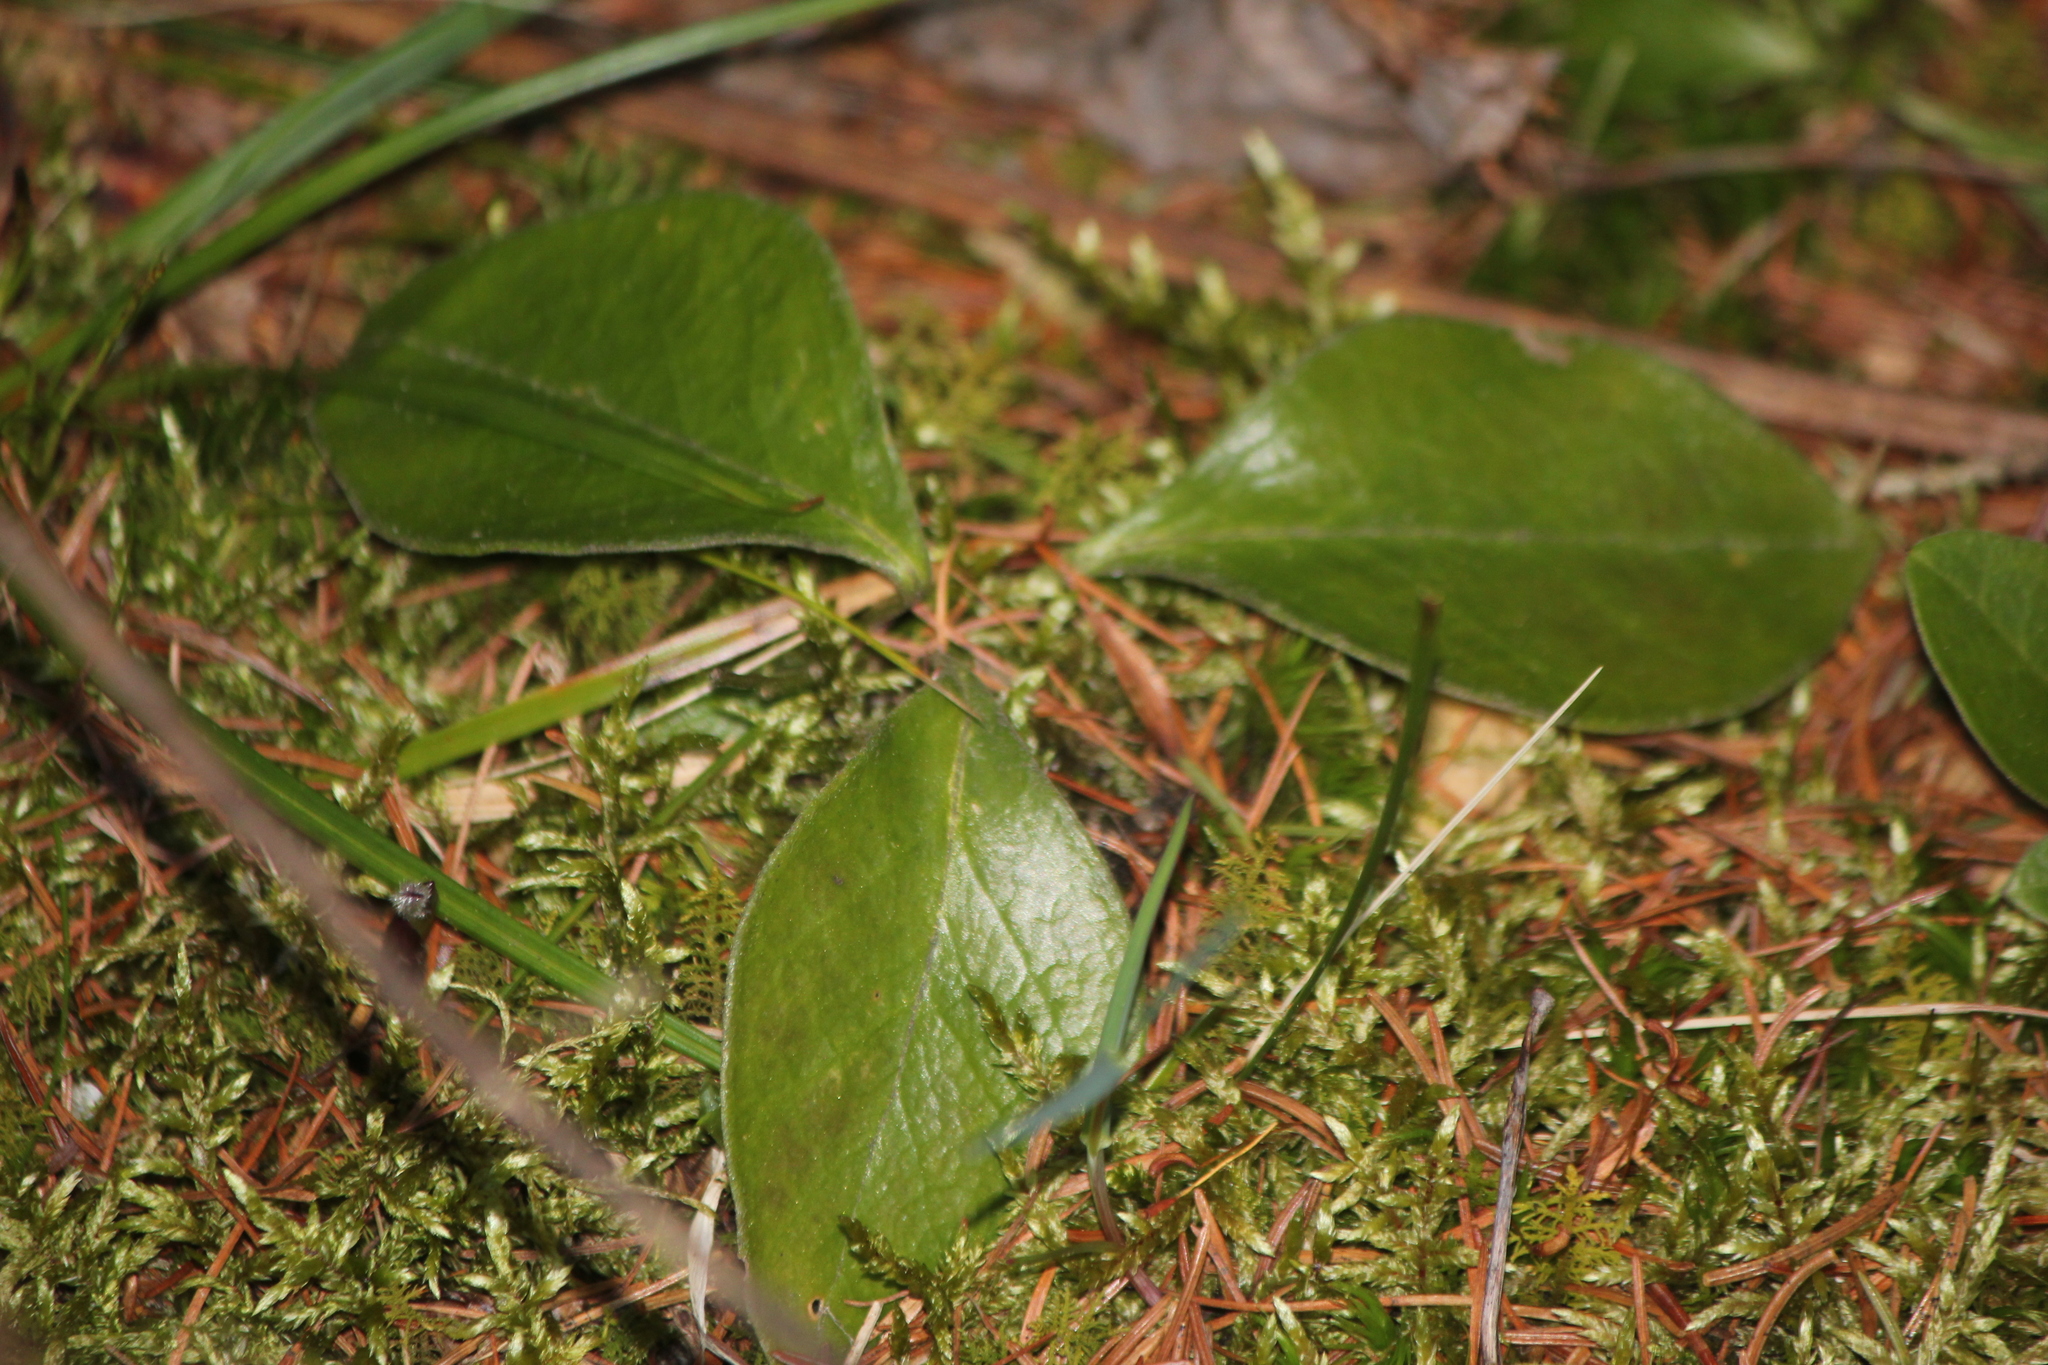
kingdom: Plantae
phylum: Tracheophyta
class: Magnoliopsida
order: Fabales
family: Polygalaceae
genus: Polygaloides
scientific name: Polygaloides paucifolia
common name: Bird-on-the-wing
